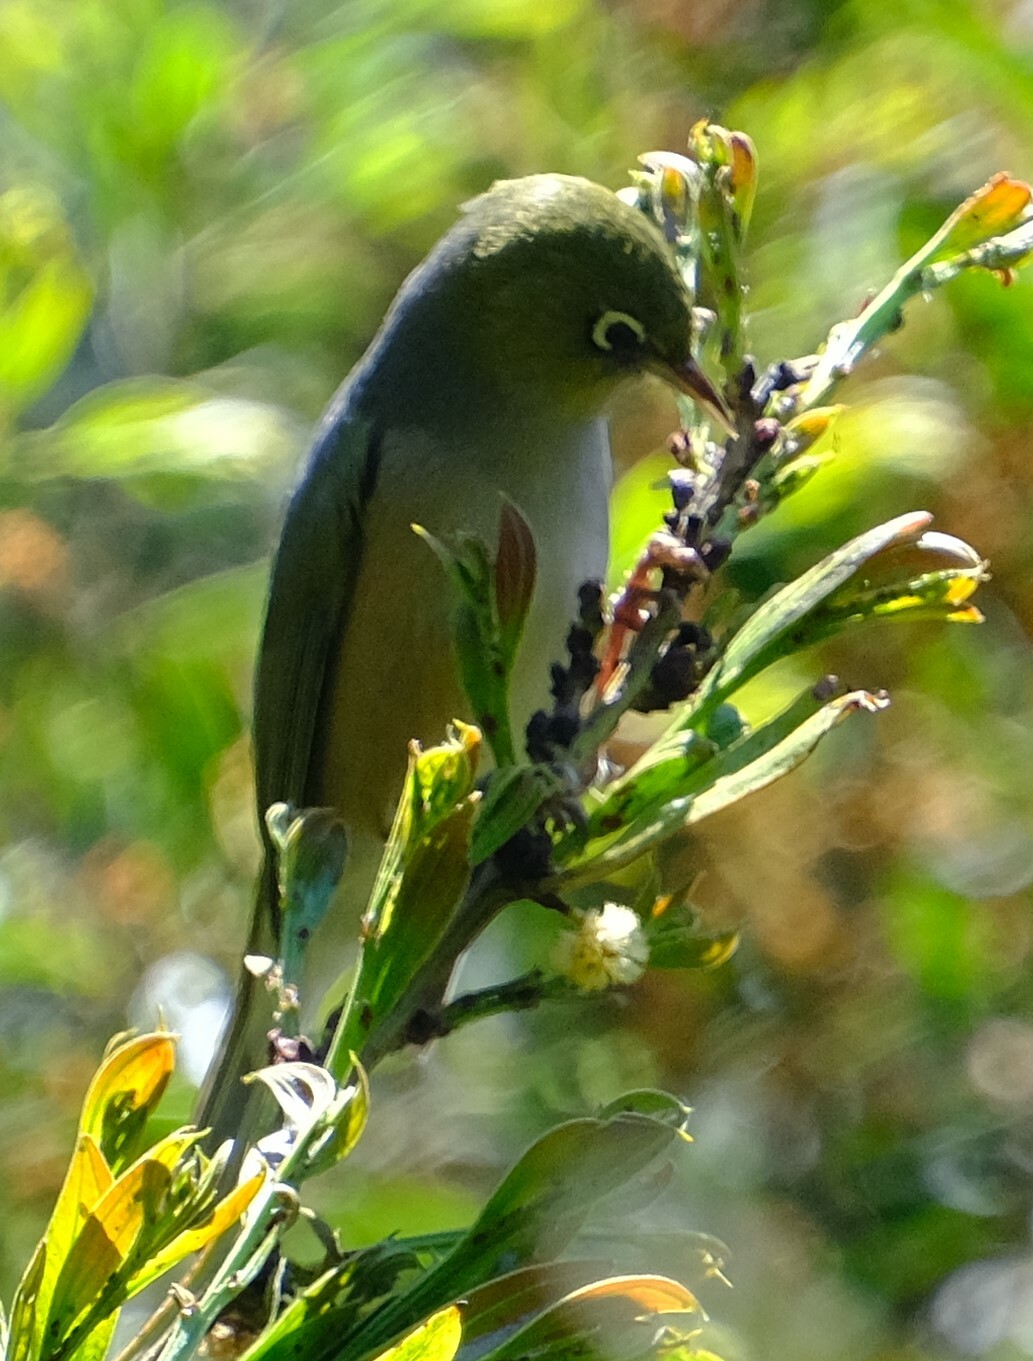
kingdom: Animalia
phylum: Chordata
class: Aves
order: Passeriformes
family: Zosteropidae
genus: Zosterops
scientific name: Zosterops lateralis
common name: Silvereye
